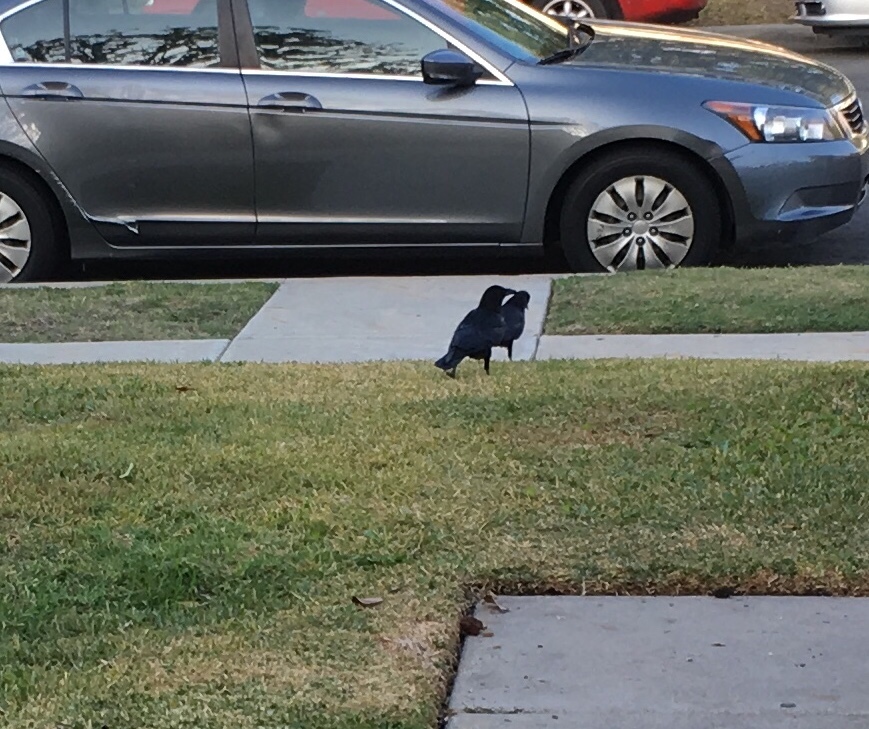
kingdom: Animalia
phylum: Chordata
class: Aves
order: Passeriformes
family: Corvidae
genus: Corvus
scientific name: Corvus brachyrhynchos
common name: American crow
